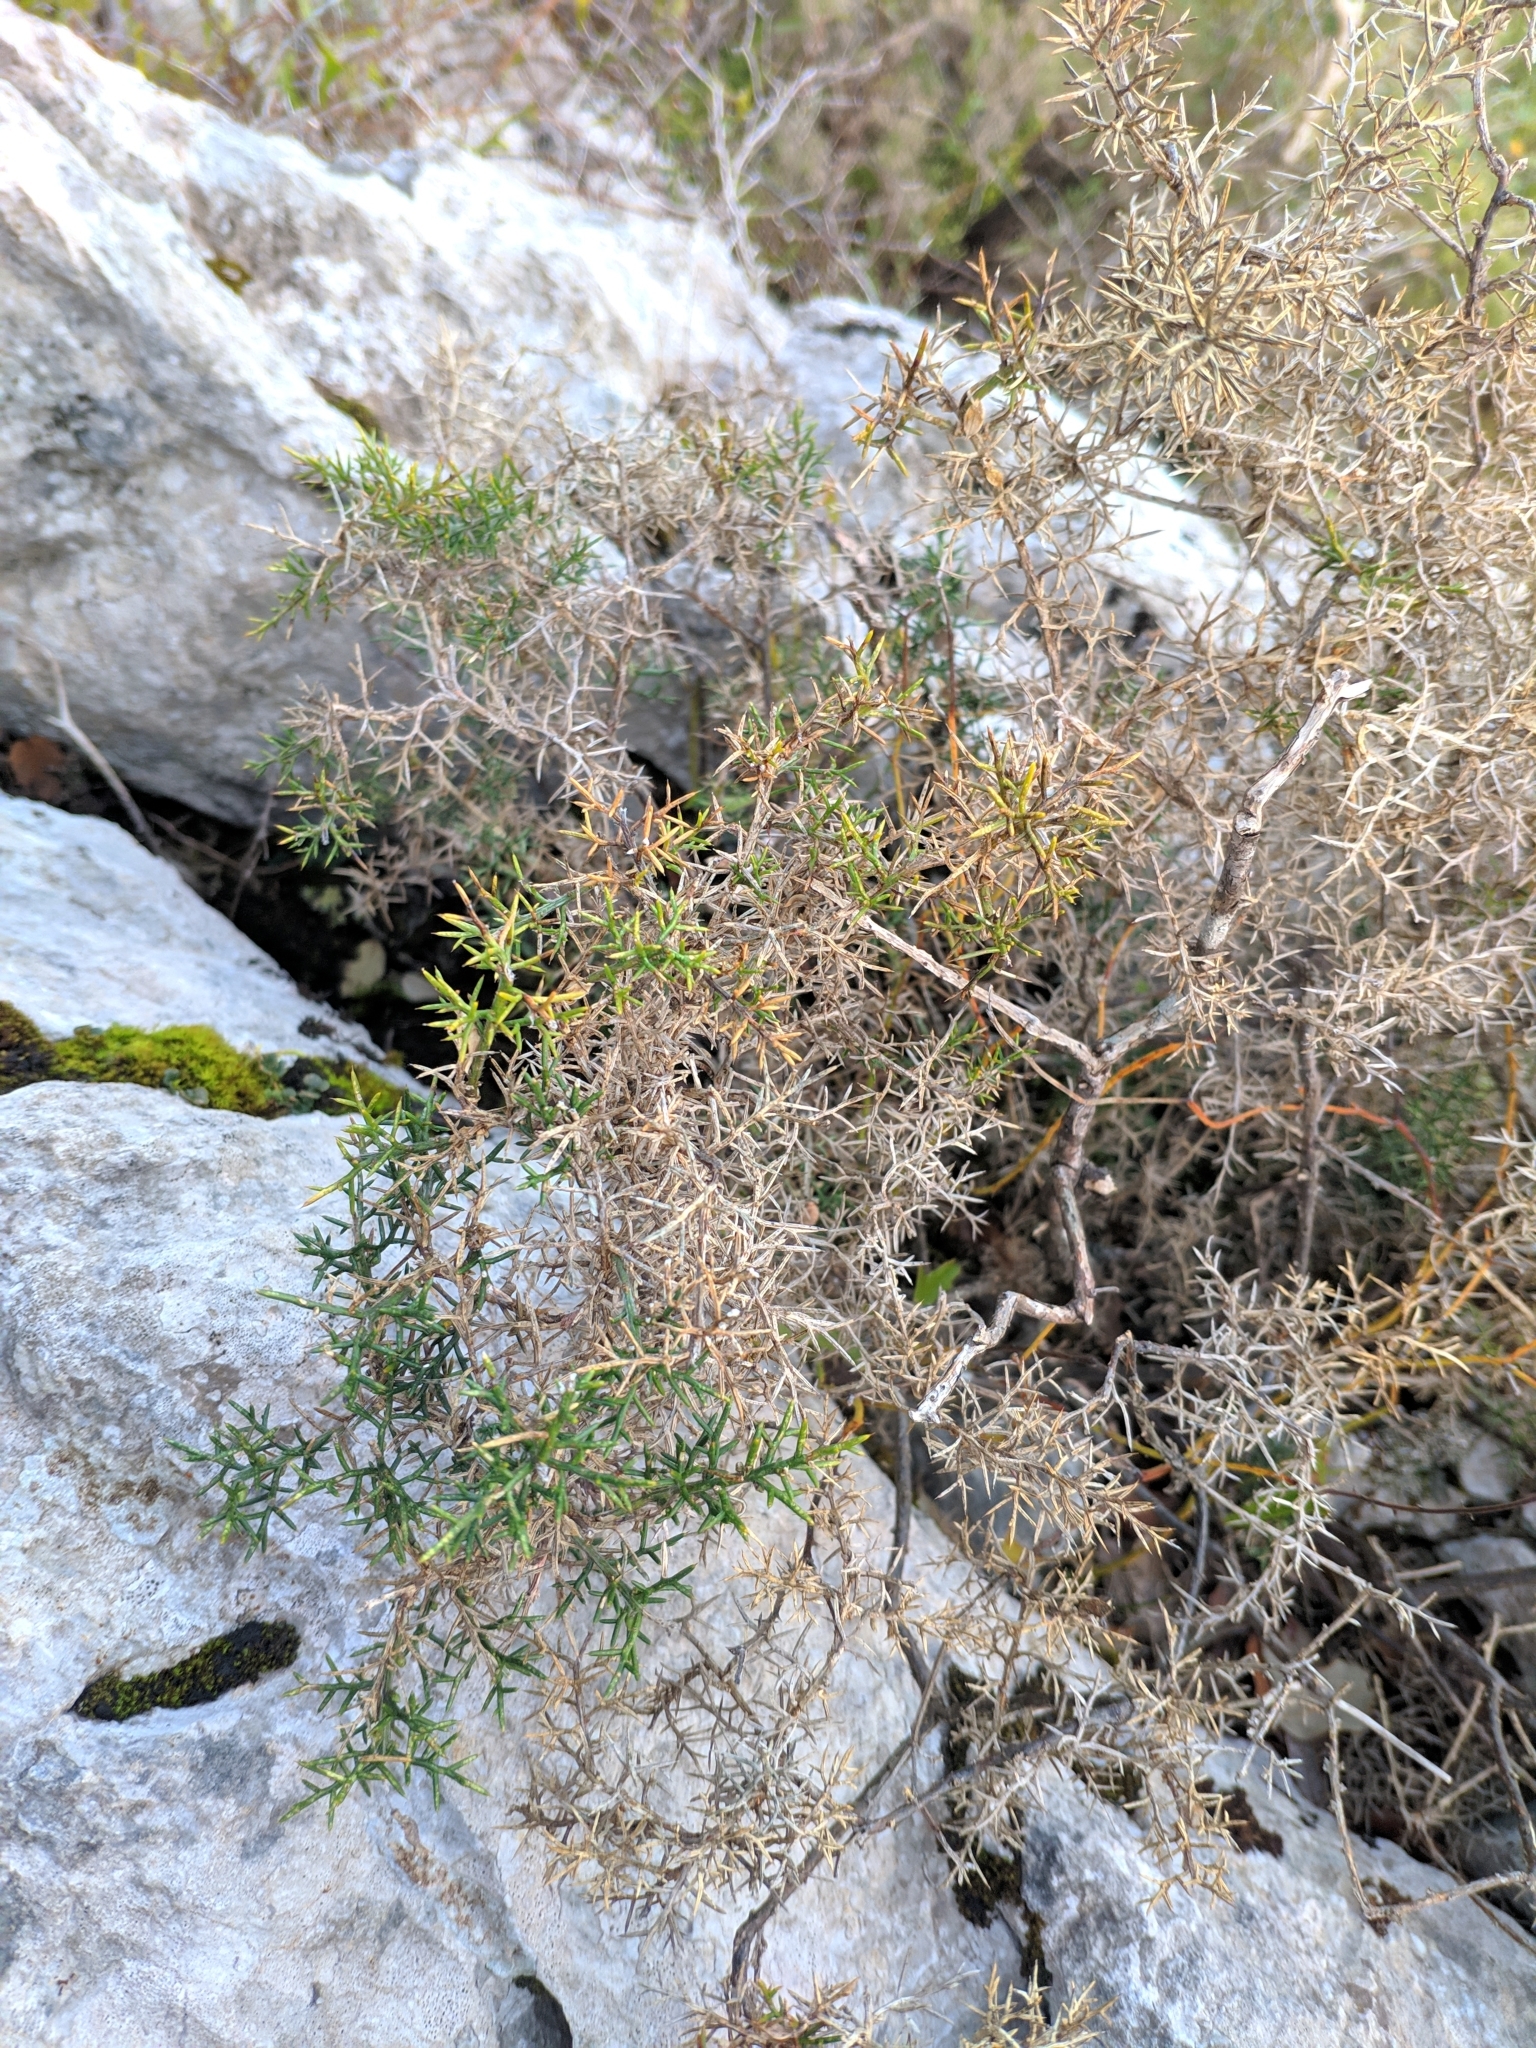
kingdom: Plantae
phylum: Tracheophyta
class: Magnoliopsida
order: Fabales
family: Fabaceae
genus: Genista
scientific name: Genista hispanica
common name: Spanish gorse
